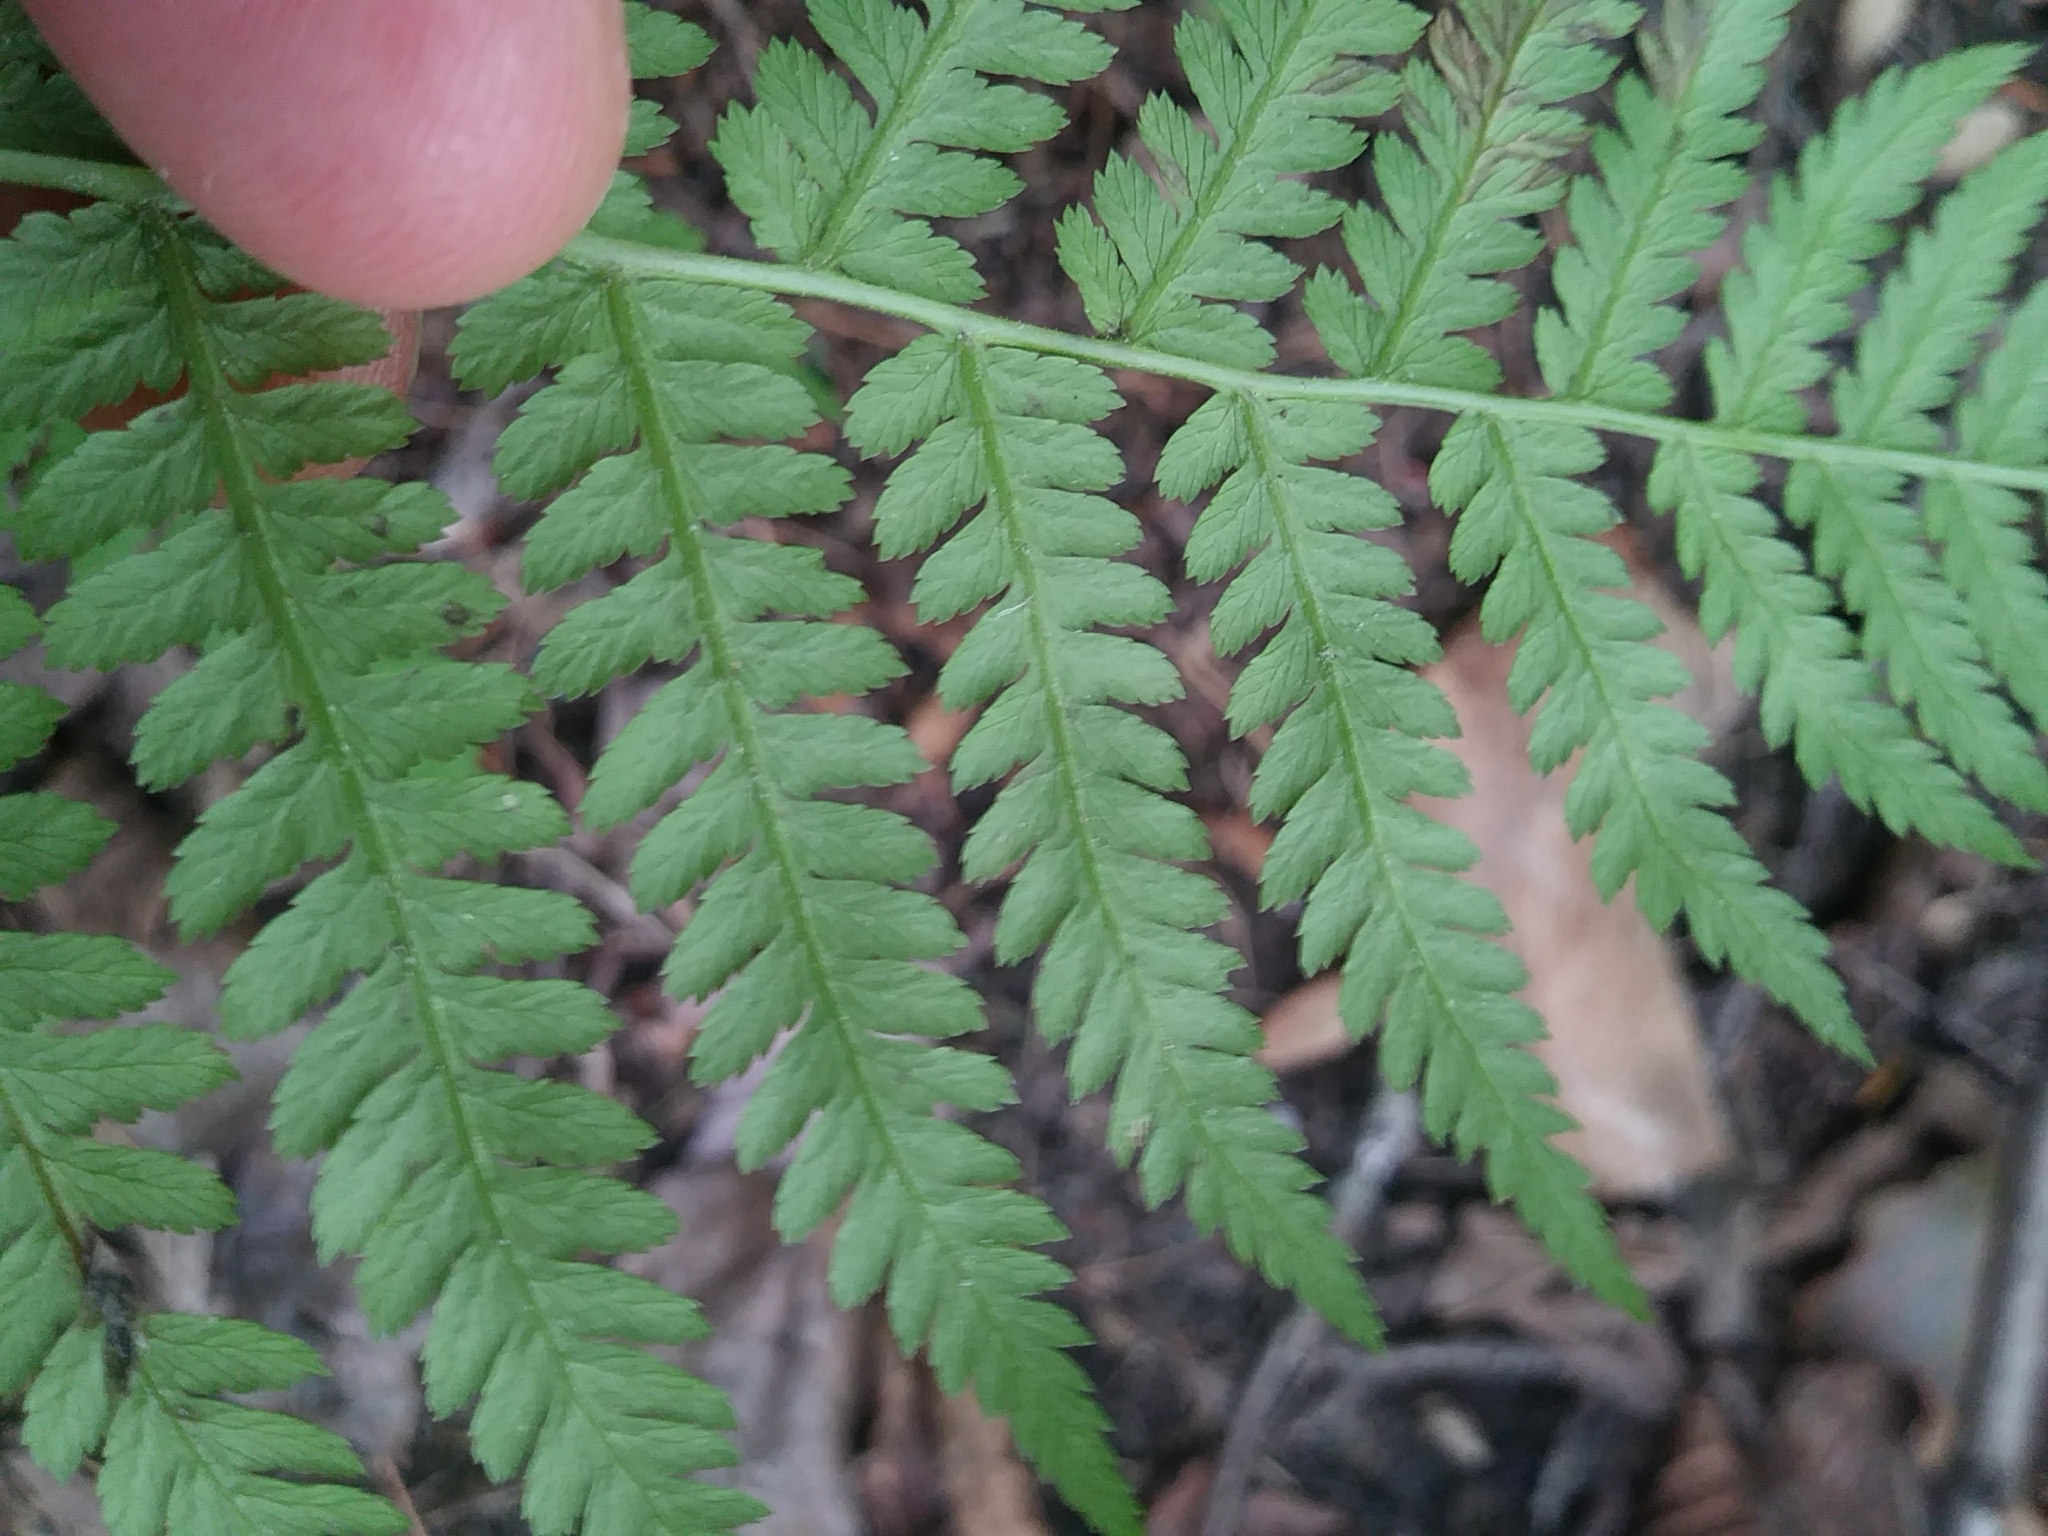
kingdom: Plantae
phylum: Tracheophyta
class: Polypodiopsida
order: Polypodiales
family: Athyriaceae
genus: Athyrium
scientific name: Athyrium angustum
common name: Northern lady fern
